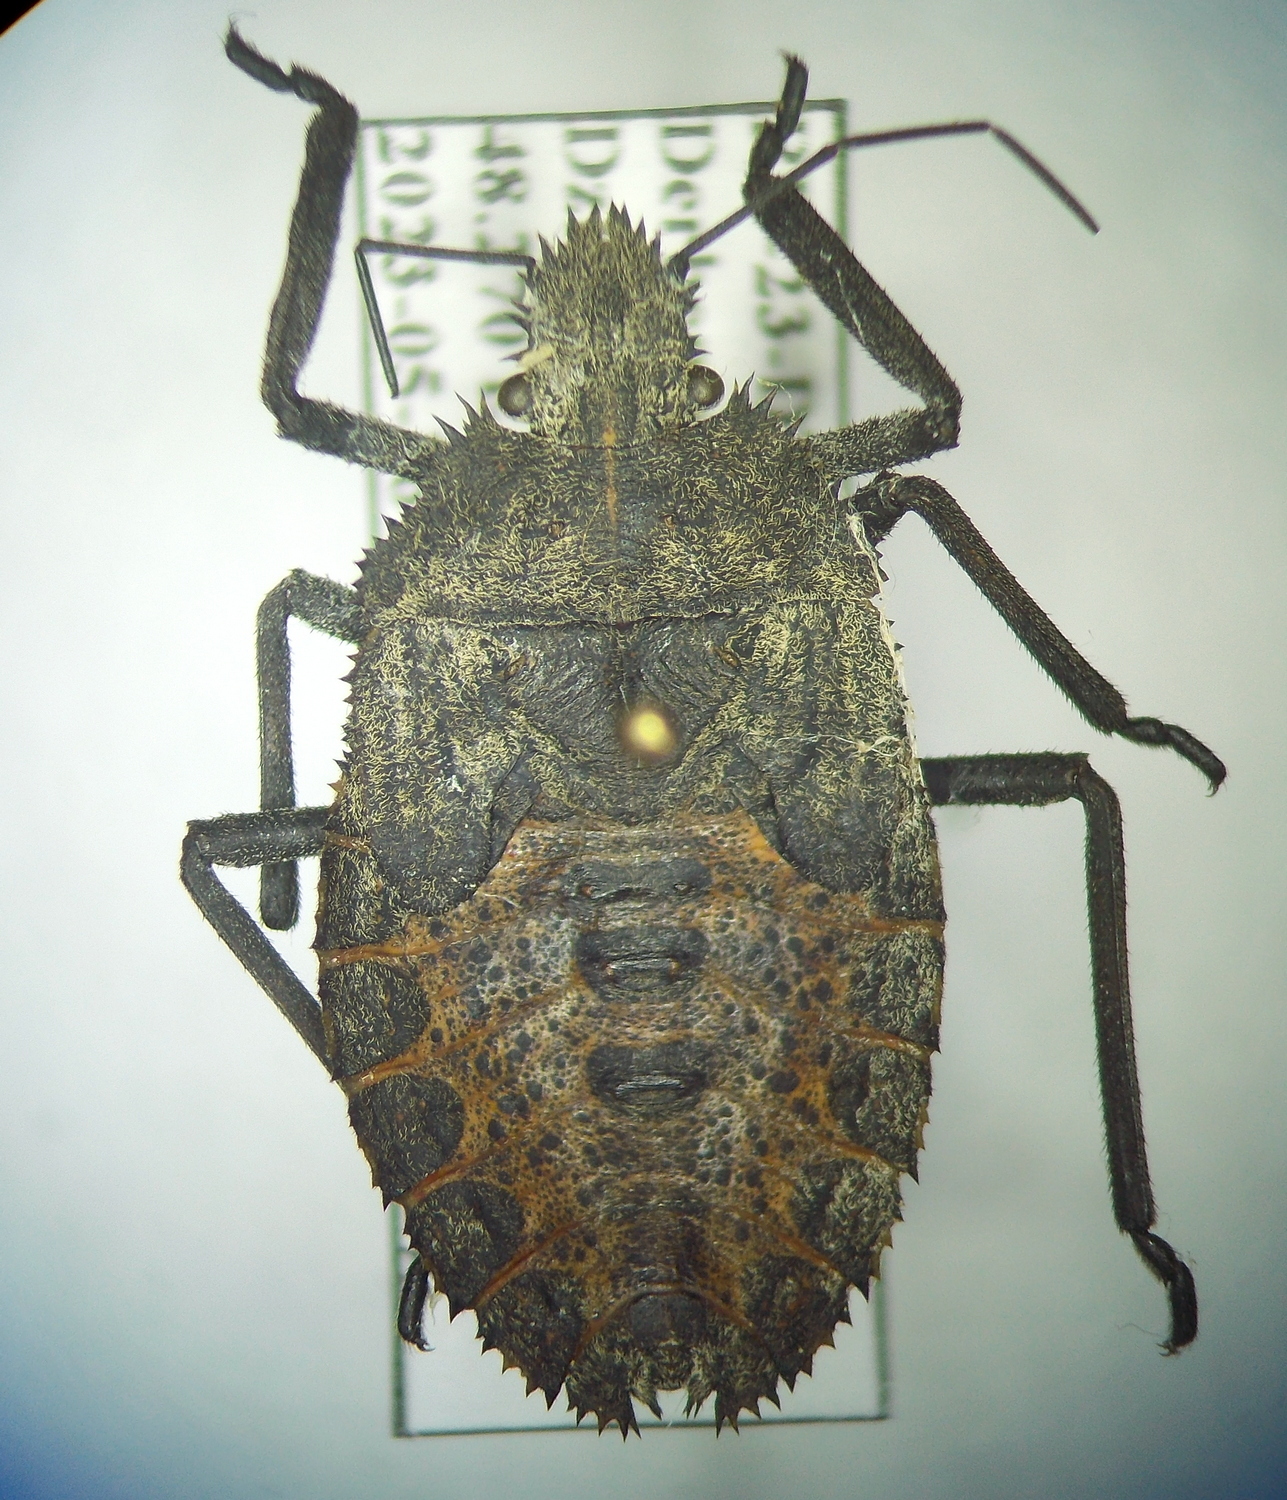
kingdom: Animalia
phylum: Arthropoda
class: Insecta
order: Hemiptera
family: Pentatomidae
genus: Mustha
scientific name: Mustha spinosula
